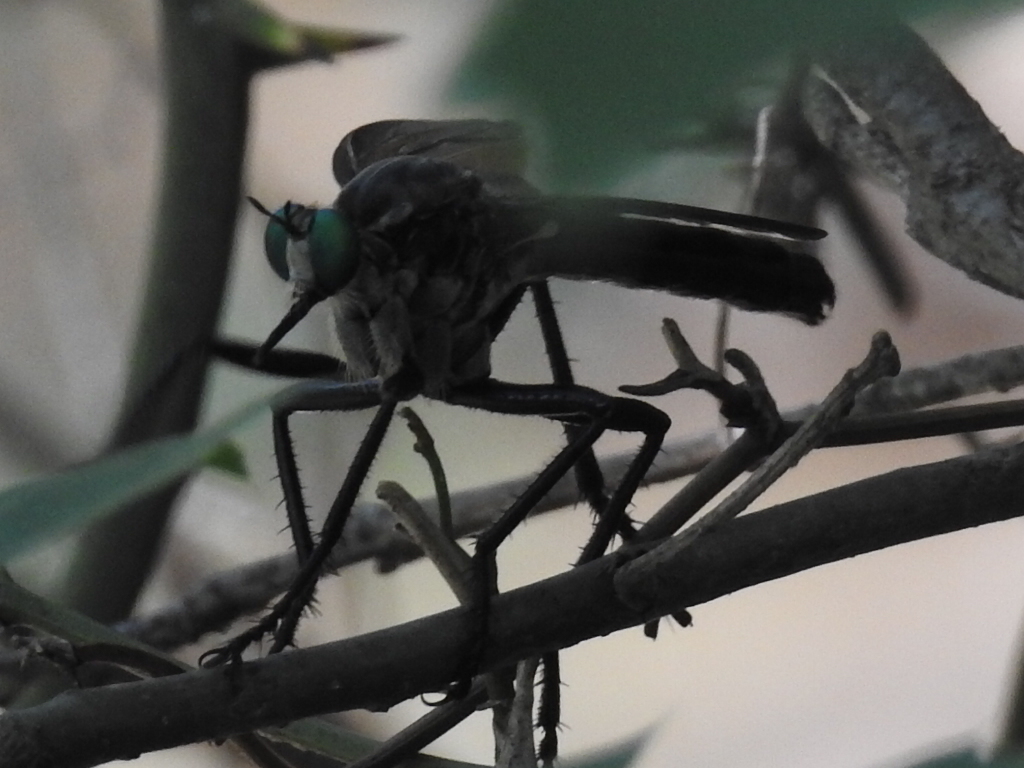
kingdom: Animalia
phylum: Arthropoda
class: Insecta
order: Diptera
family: Asilidae
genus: Microstylum
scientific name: Microstylum morosum
